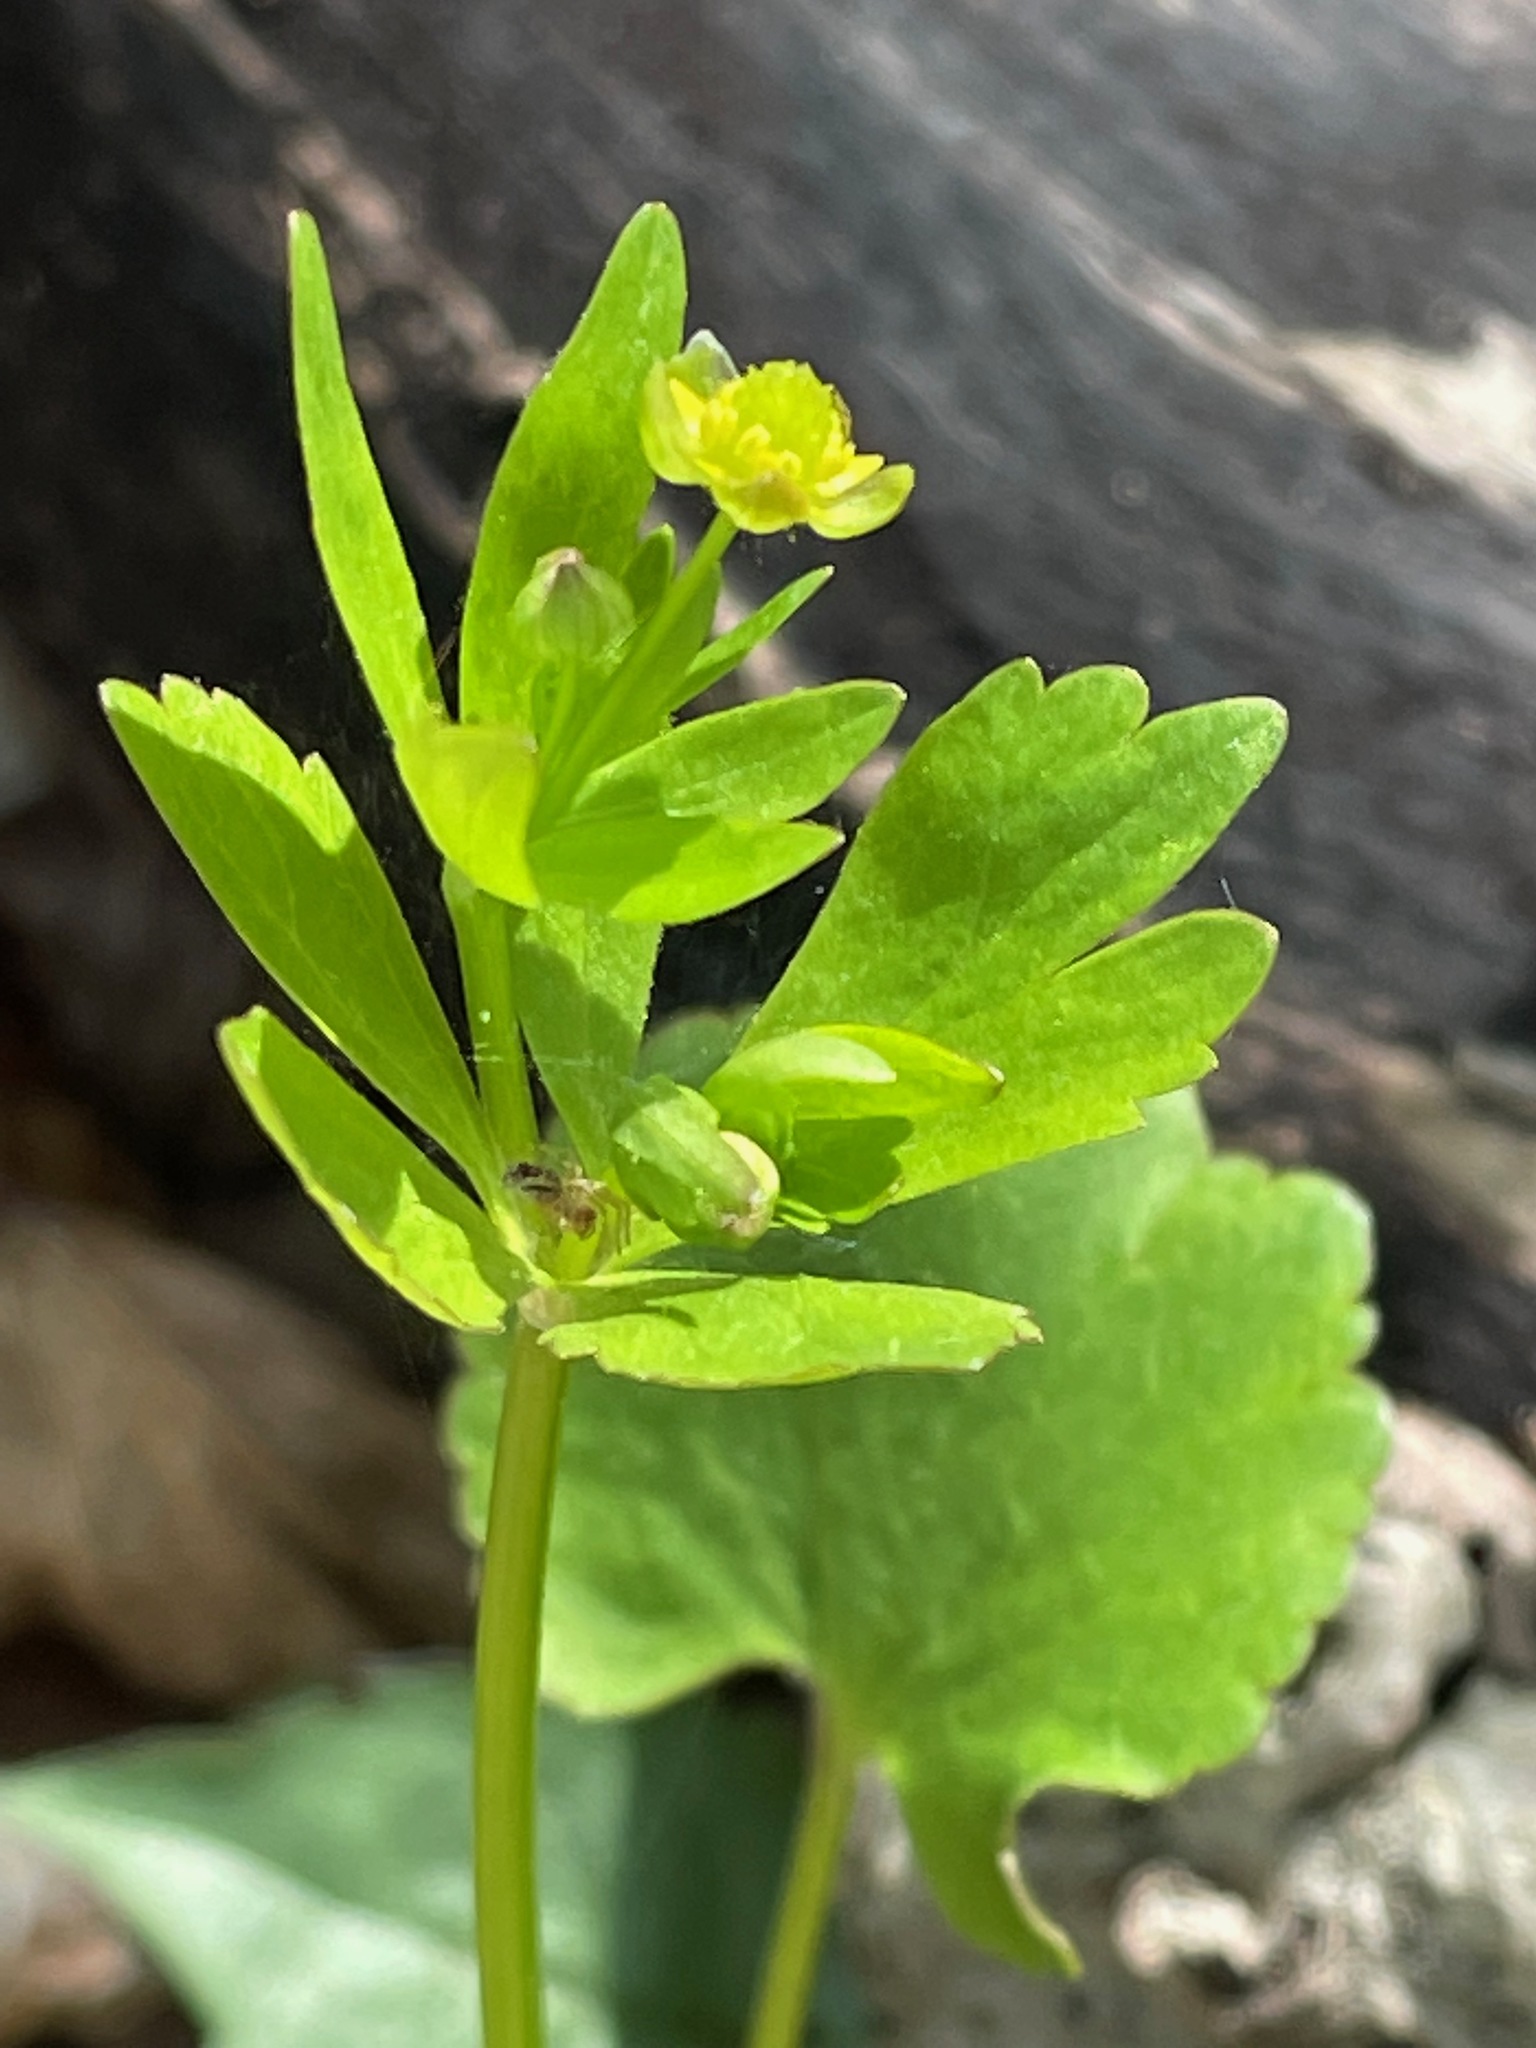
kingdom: Plantae
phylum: Tracheophyta
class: Magnoliopsida
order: Ranunculales
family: Ranunculaceae
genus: Ranunculus
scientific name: Ranunculus abortivus
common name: Early wood buttercup
